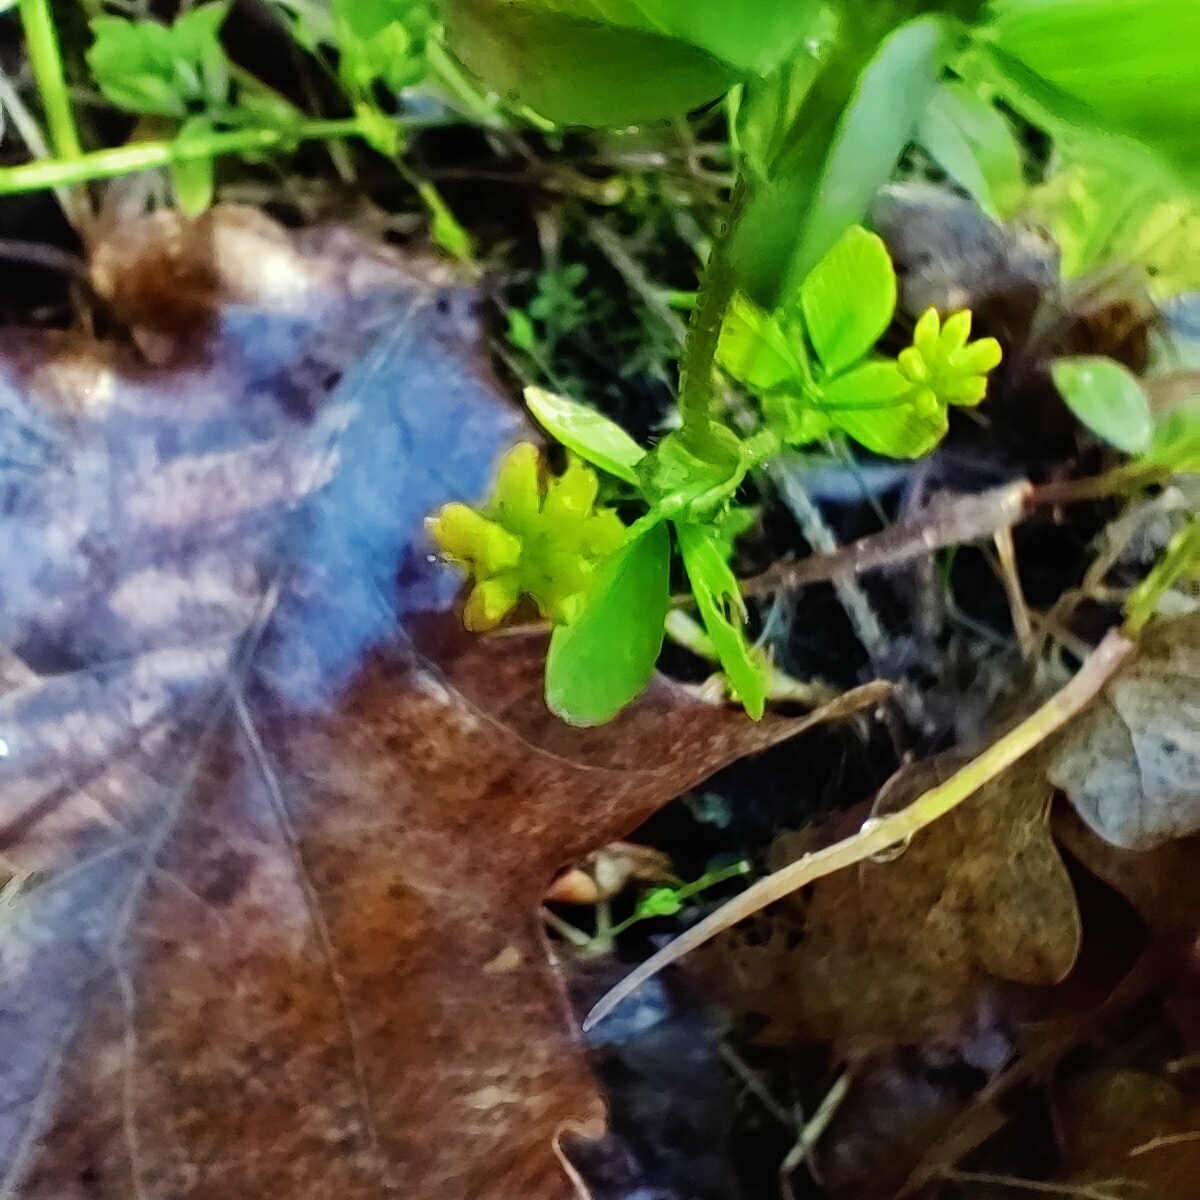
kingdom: Plantae
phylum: Tracheophyta
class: Magnoliopsida
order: Fabales
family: Fabaceae
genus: Trifolium
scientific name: Trifolium dubium
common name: Suckling clover
